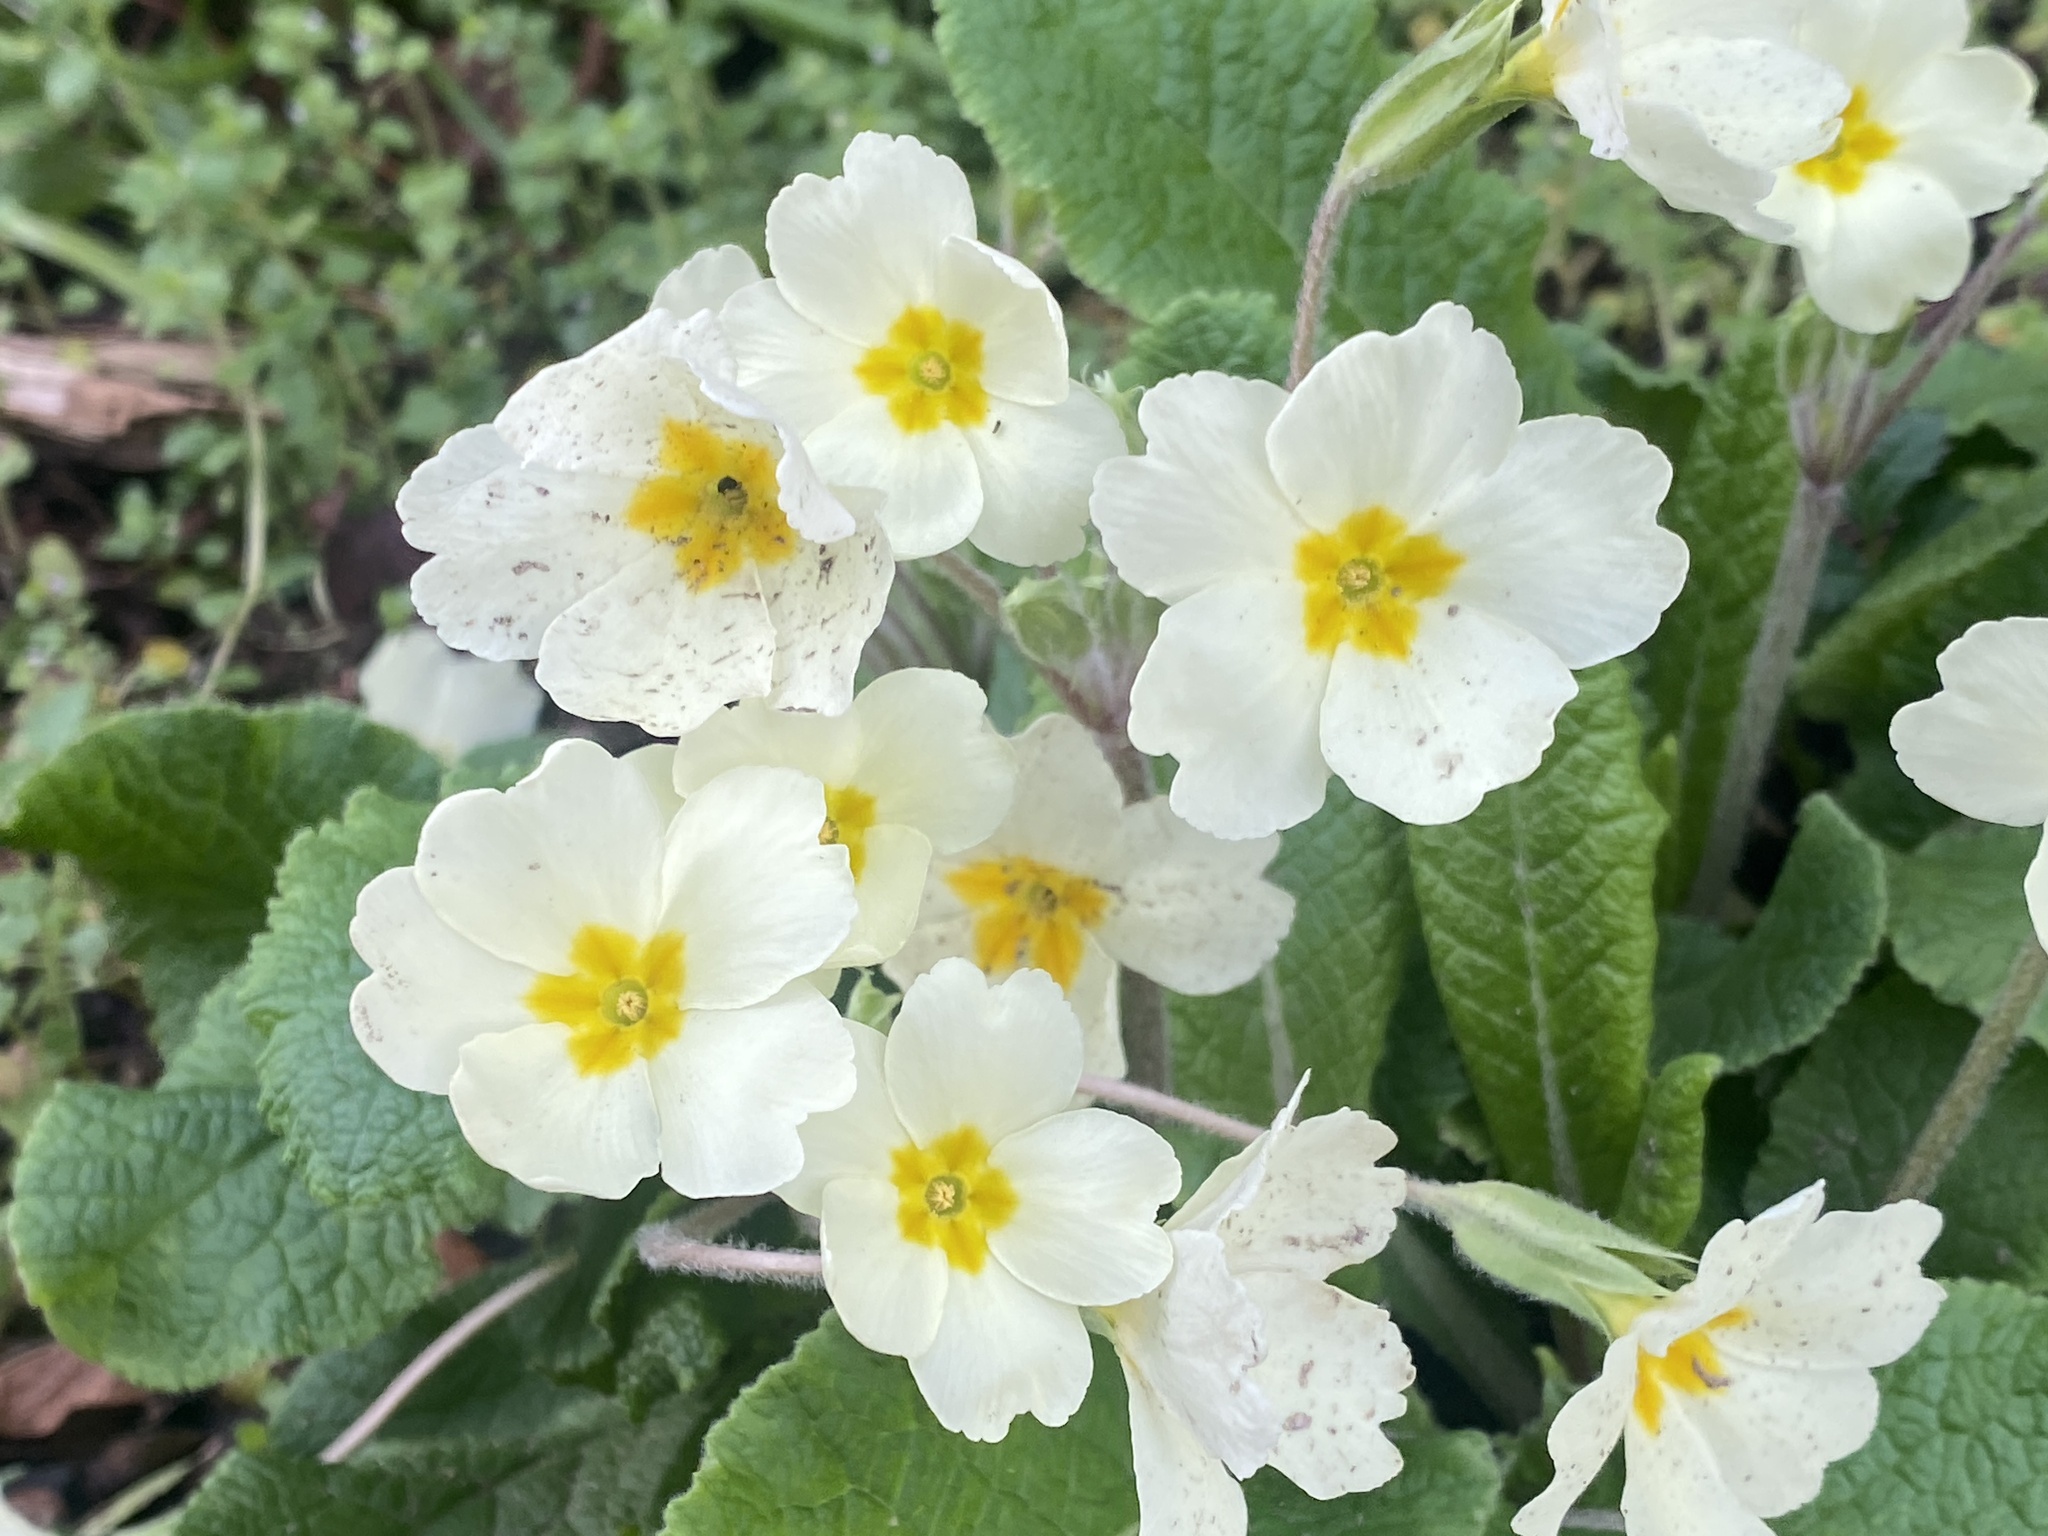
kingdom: Plantae
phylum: Tracheophyta
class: Magnoliopsida
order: Ericales
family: Primulaceae
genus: Primula
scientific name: Primula vulgaris
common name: Primrose
